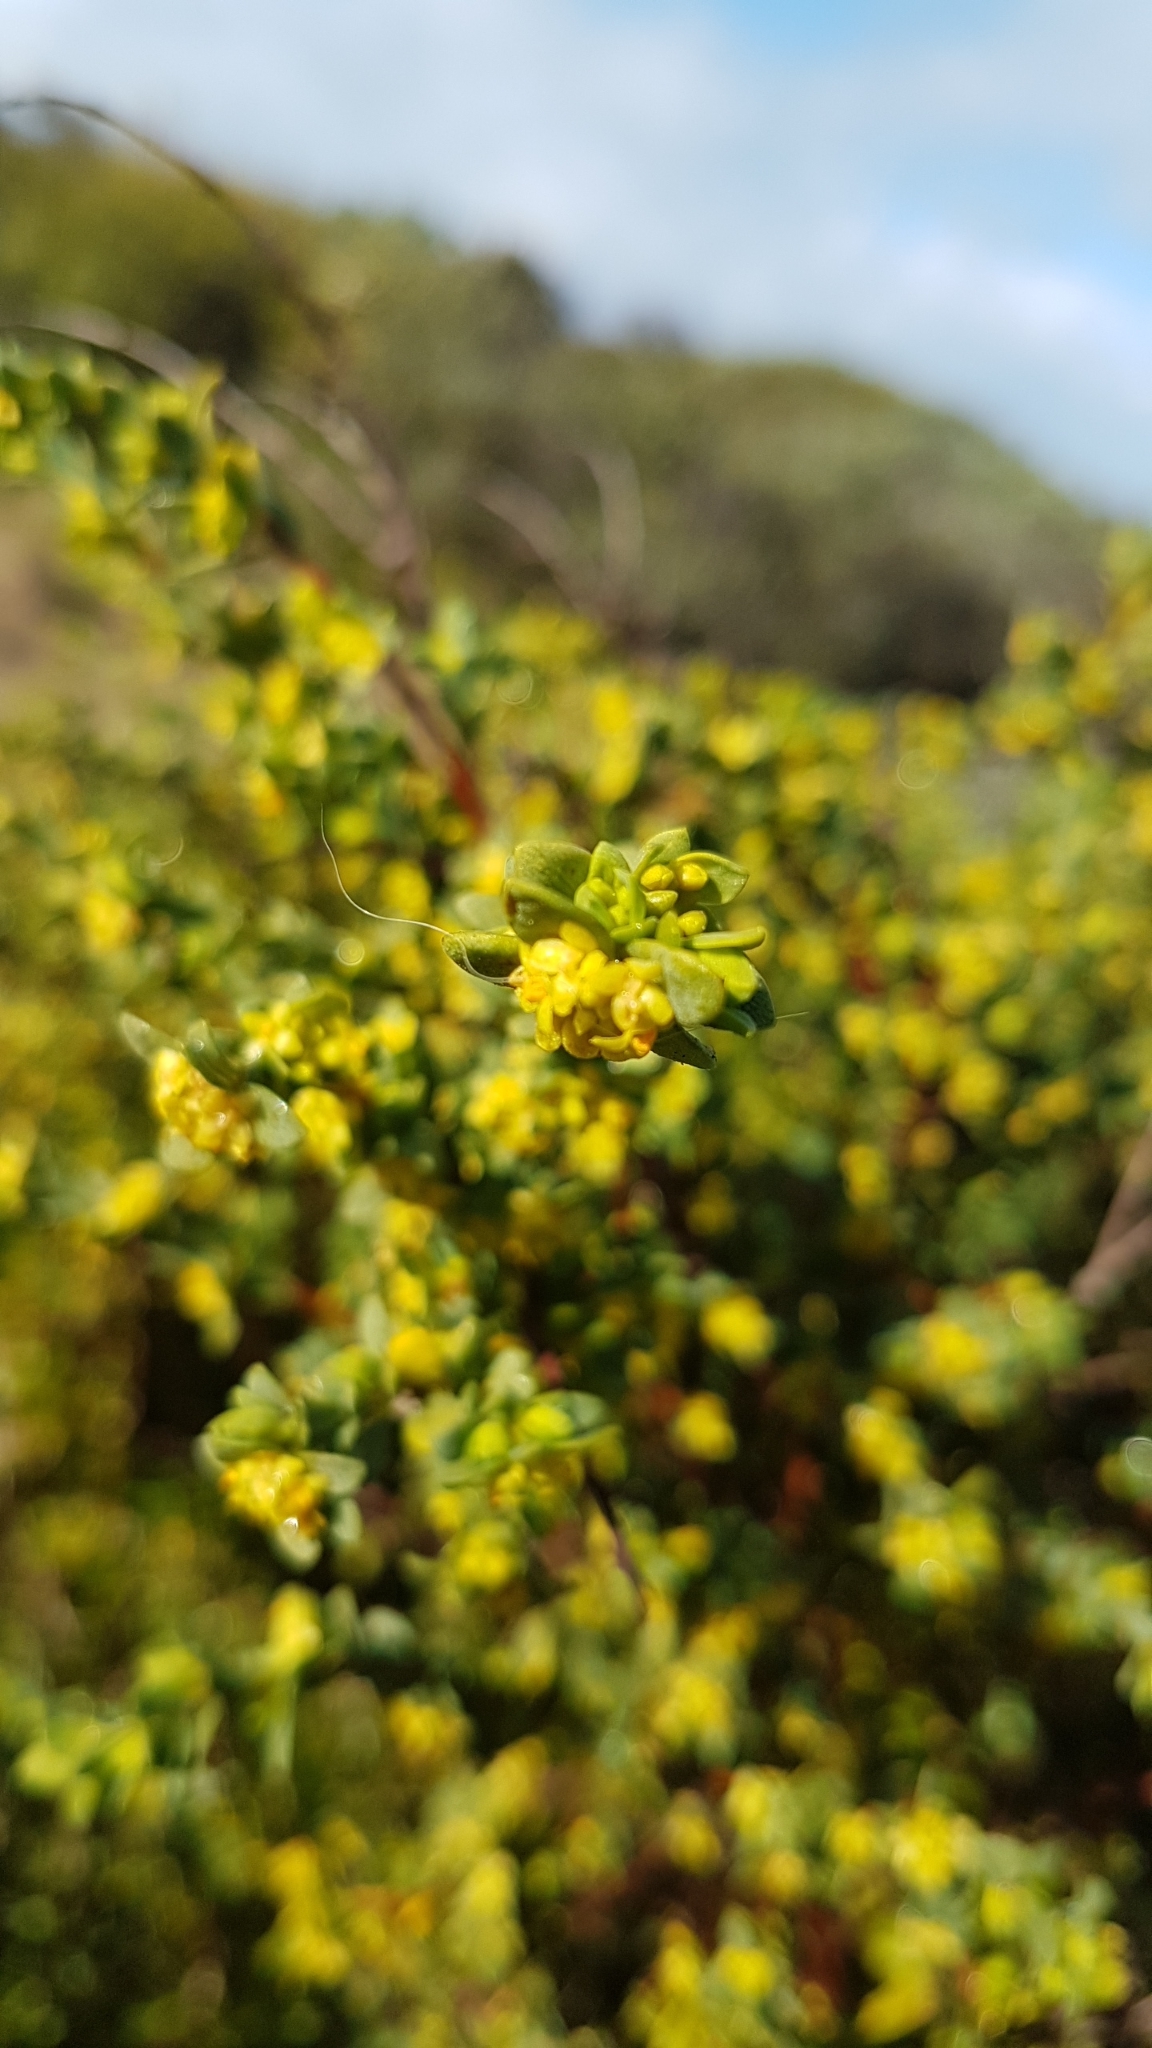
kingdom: Plantae
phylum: Tracheophyta
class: Magnoliopsida
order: Malvales
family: Thymelaeaceae
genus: Pimelea
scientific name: Pimelea serpyllifolia
